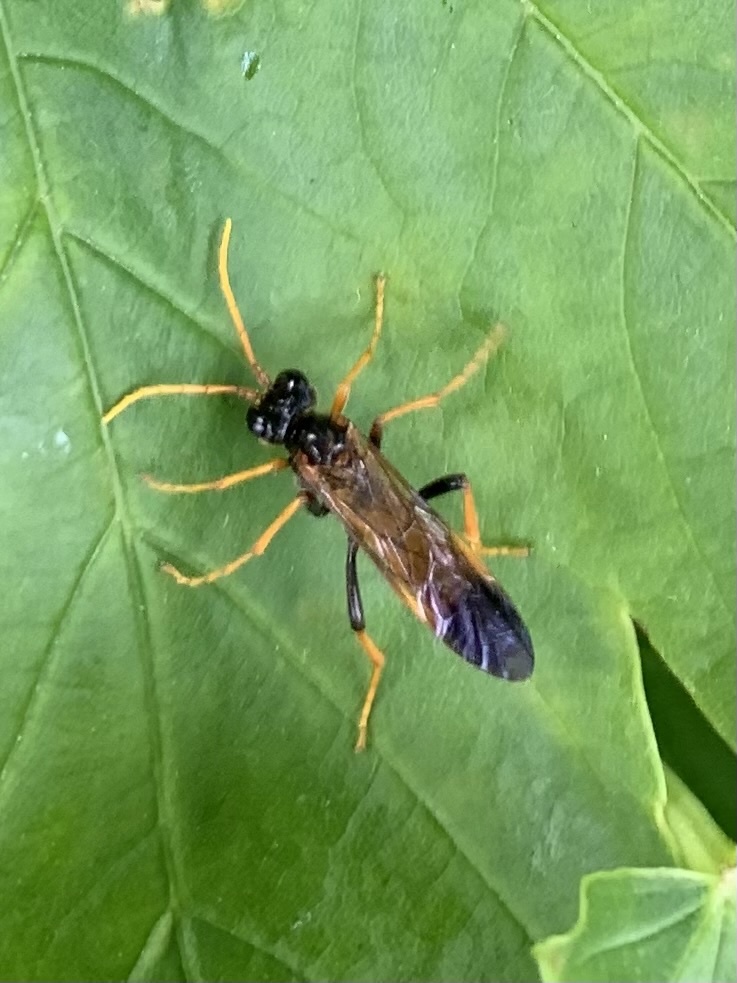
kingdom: Animalia
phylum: Arthropoda
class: Insecta
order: Hymenoptera
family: Tenthredinidae
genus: Tenthredo
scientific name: Tenthredo campestris
